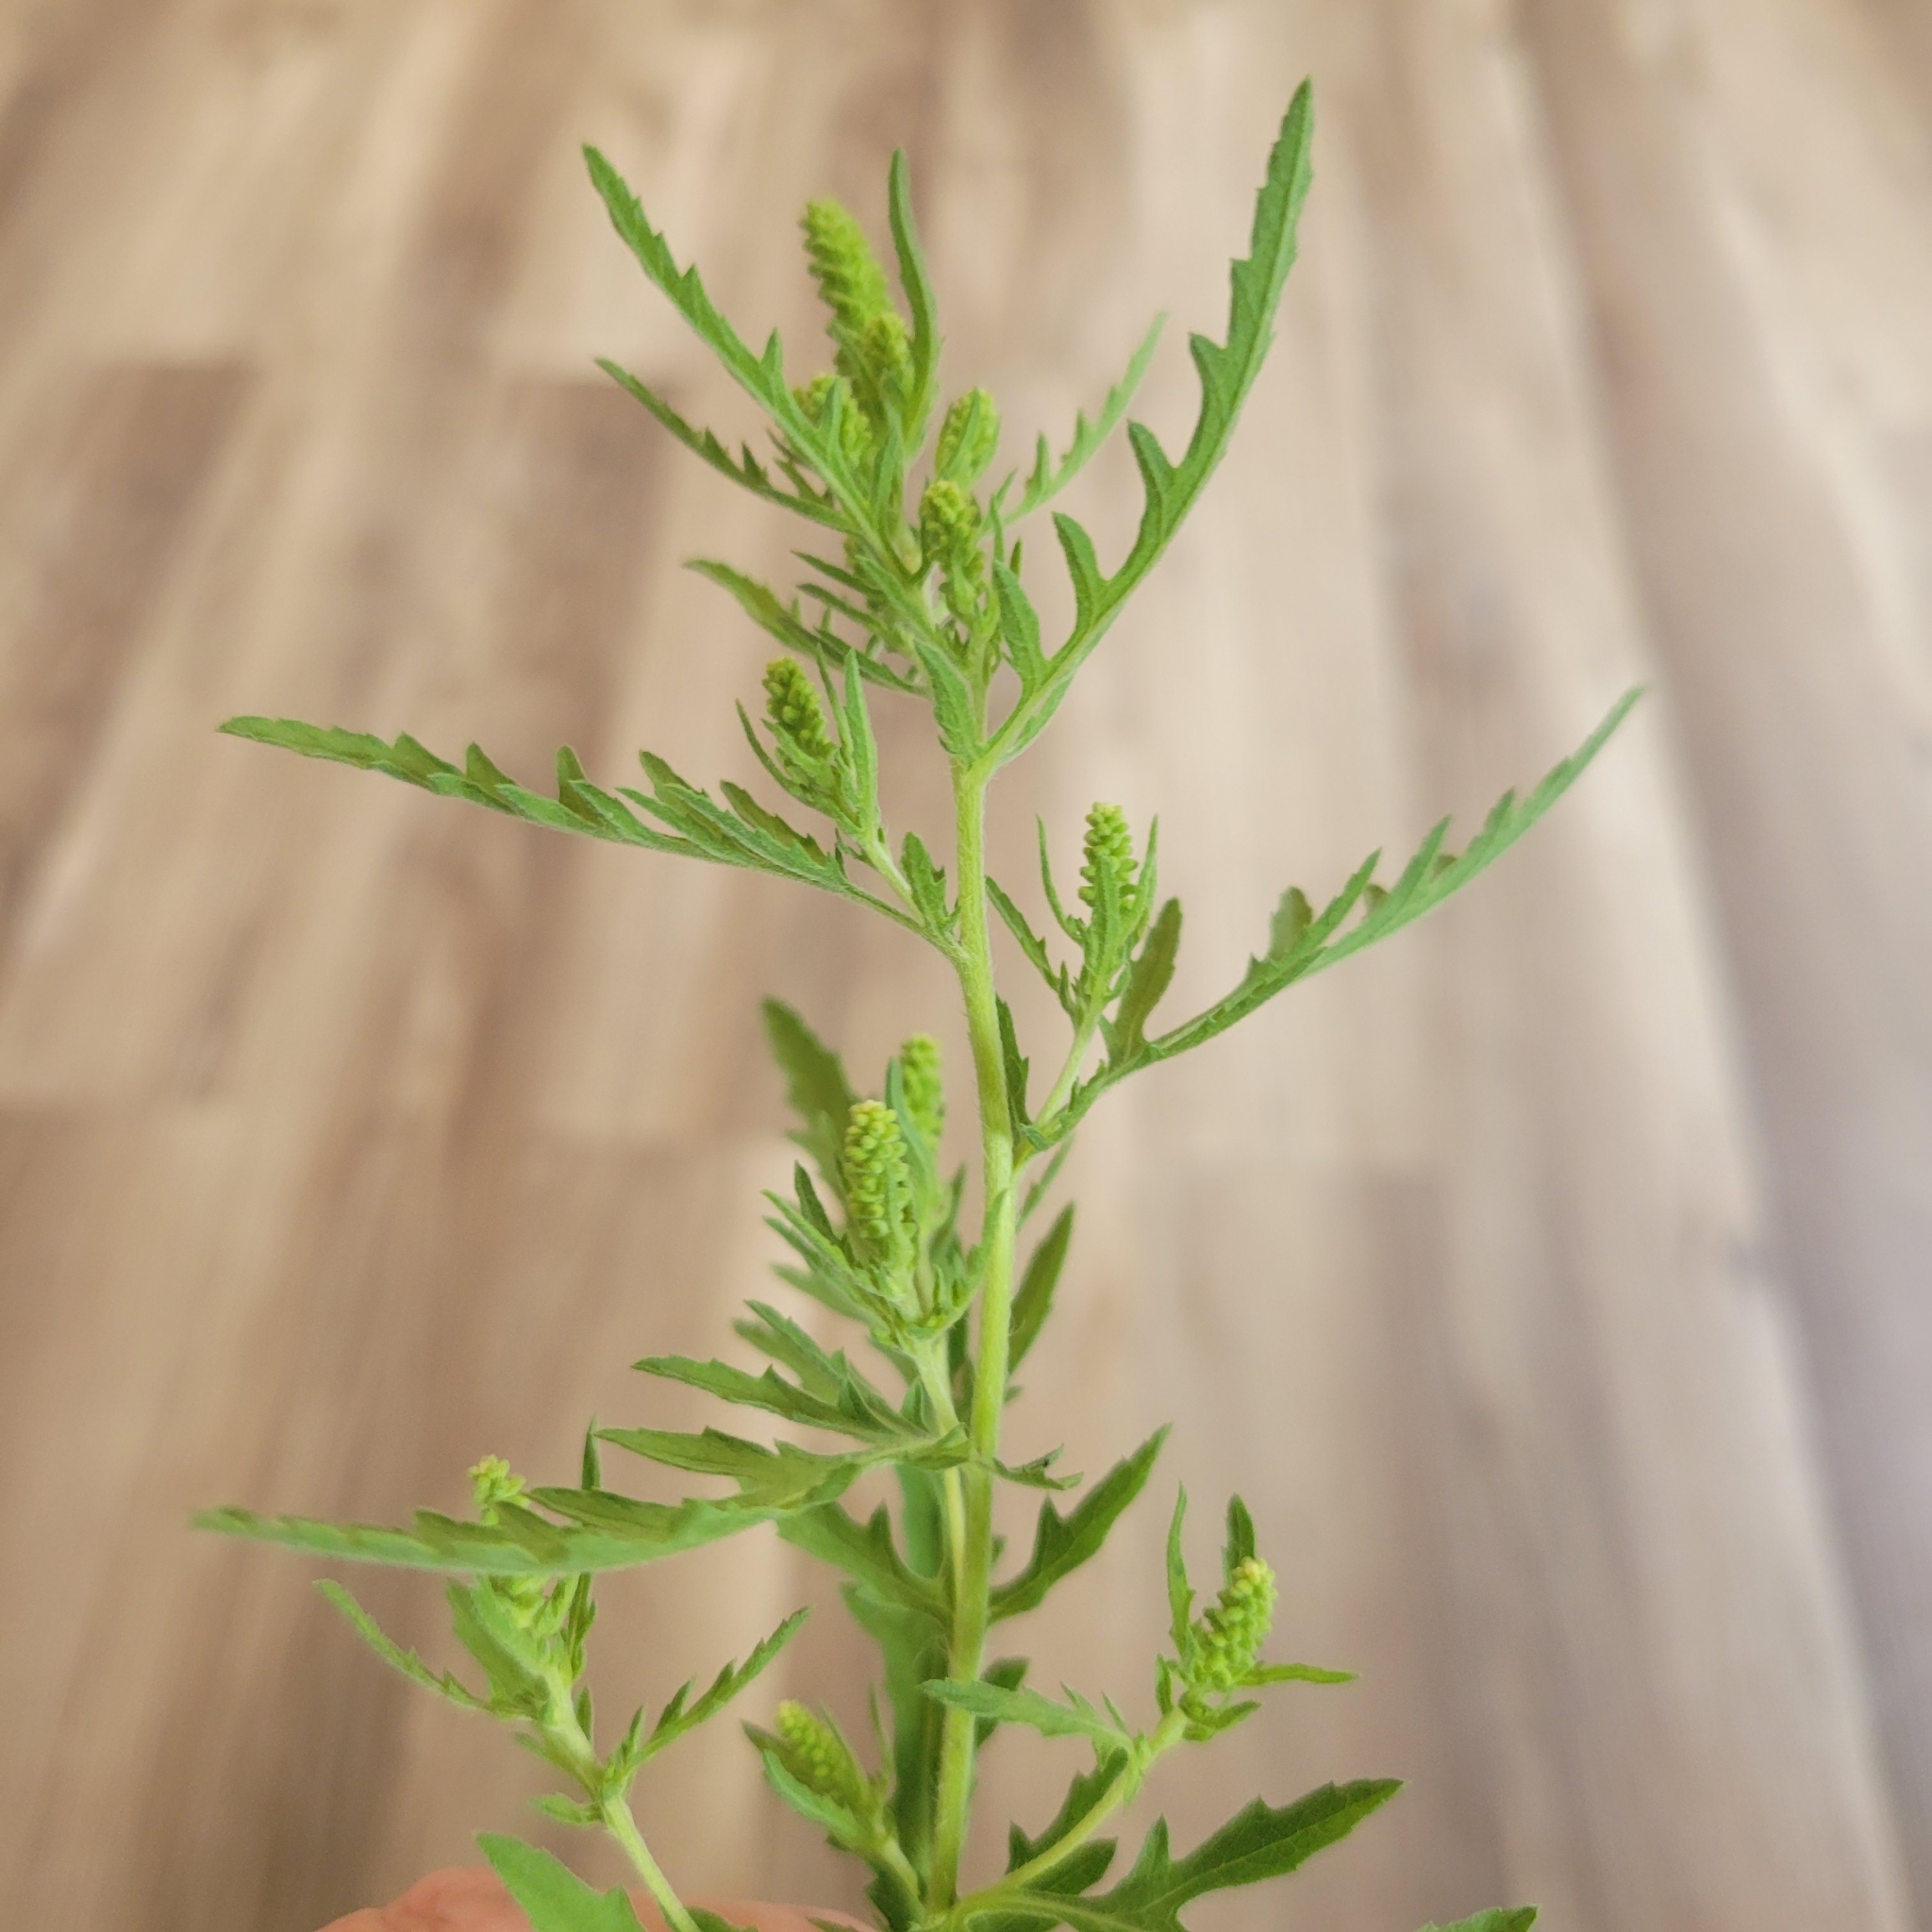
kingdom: Plantae
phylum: Tracheophyta
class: Magnoliopsida
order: Asterales
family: Asteraceae
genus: Ambrosia
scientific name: Ambrosia psilostachya
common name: Perennial ragweed
